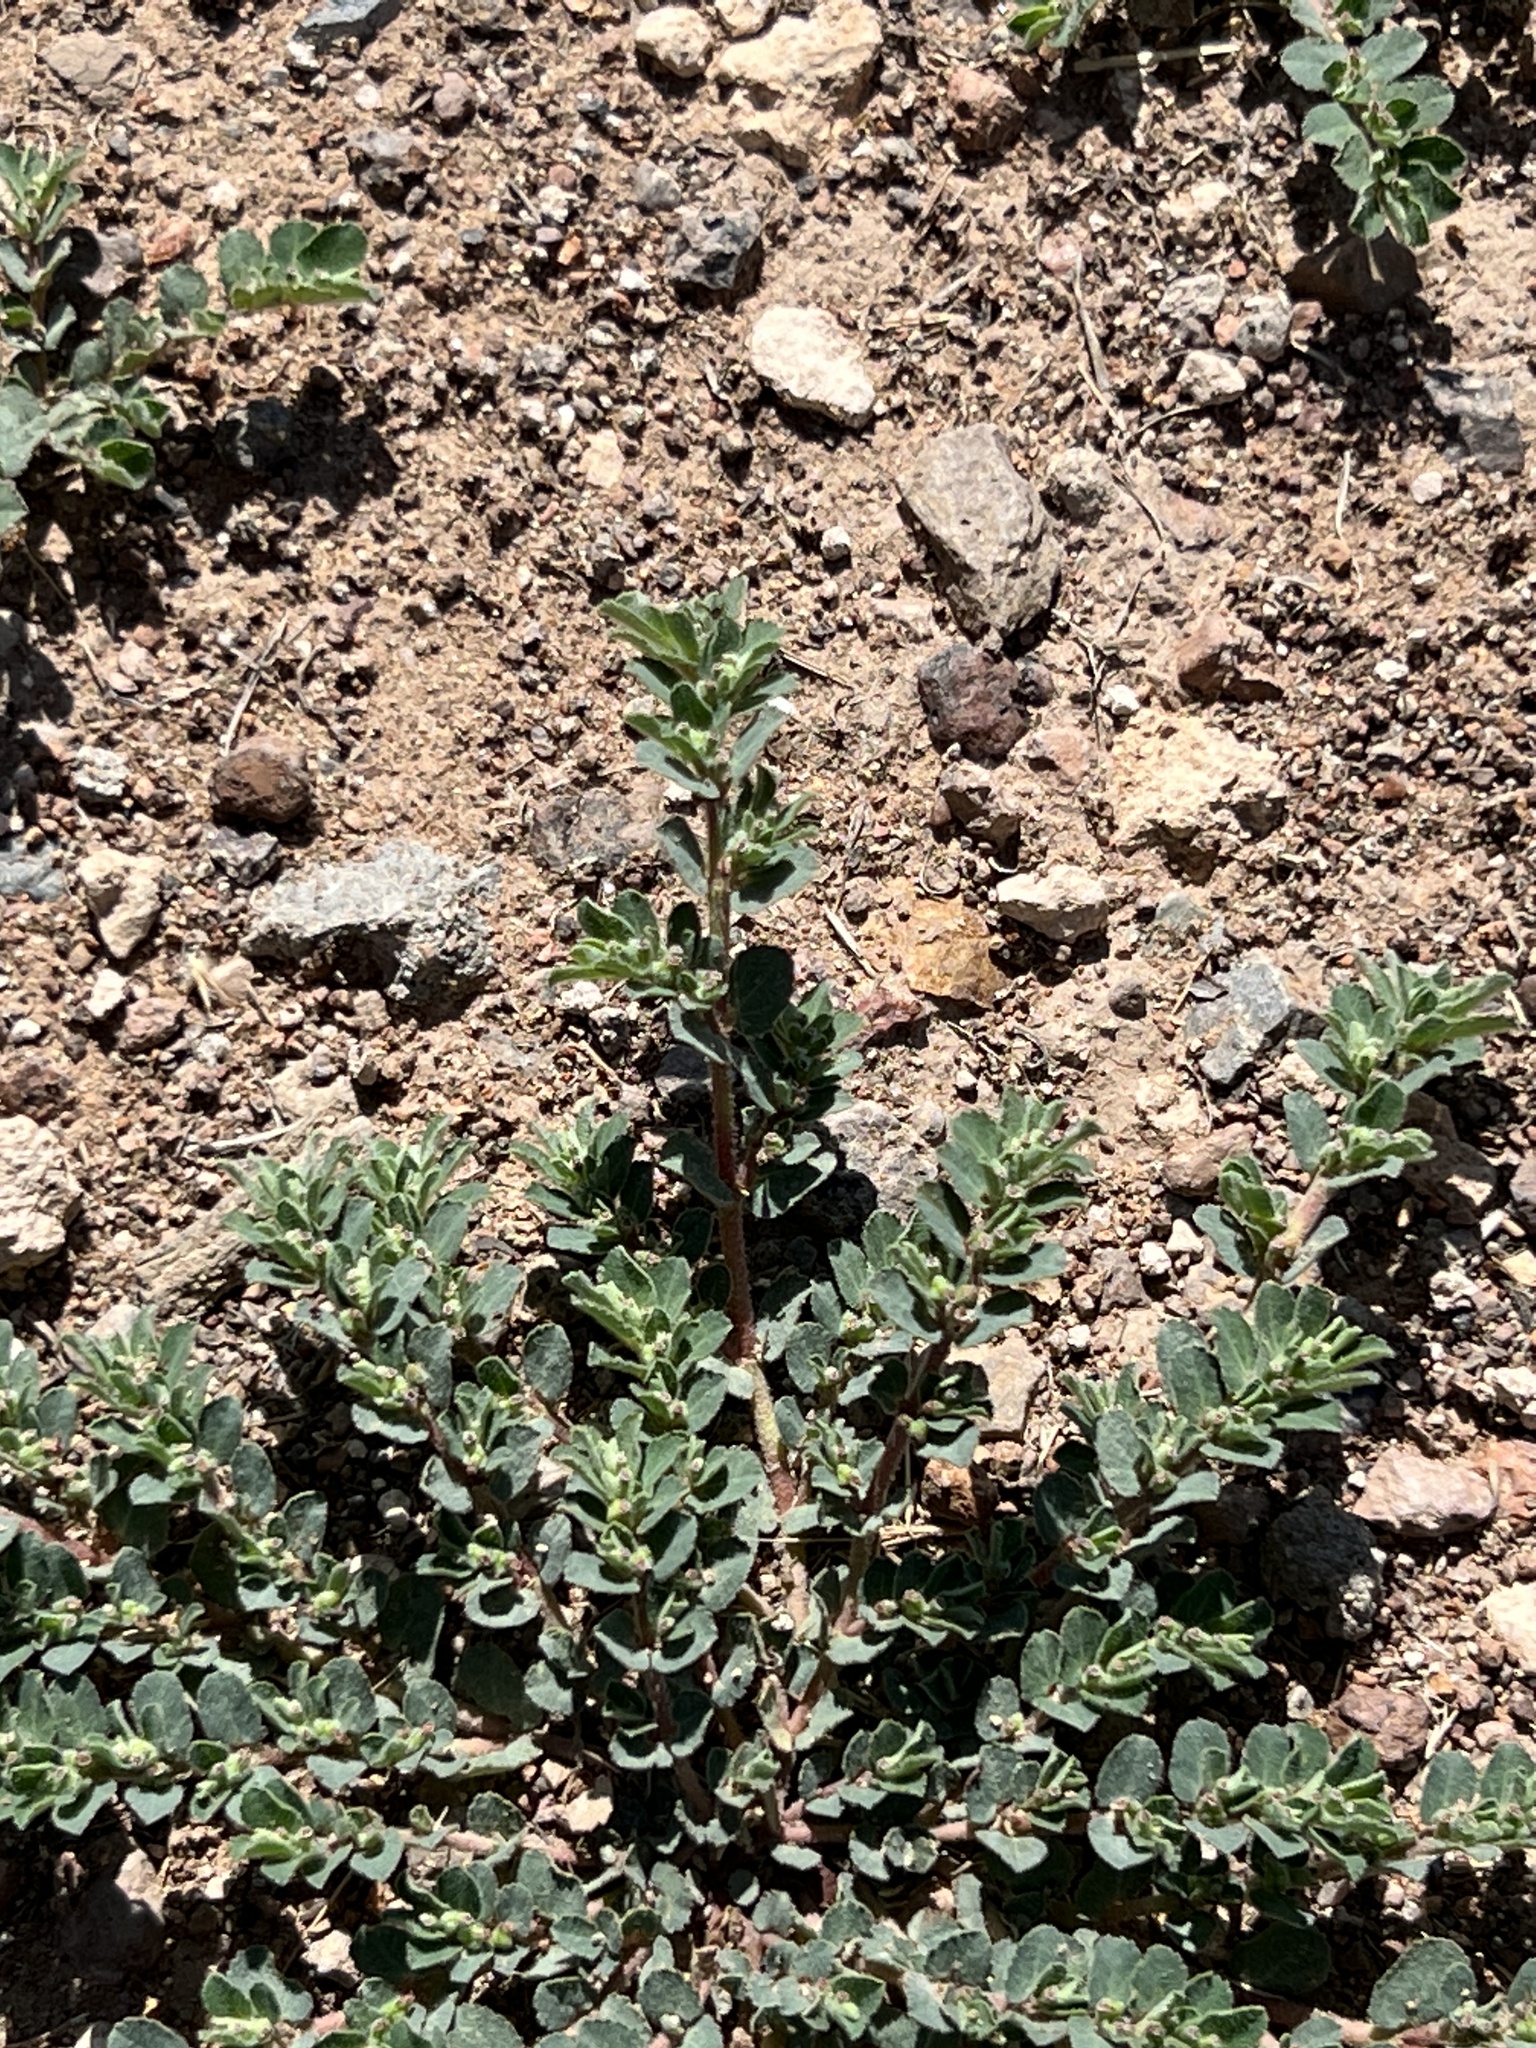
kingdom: Plantae
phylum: Tracheophyta
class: Magnoliopsida
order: Malpighiales
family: Euphorbiaceae
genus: Euphorbia
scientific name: Euphorbia stictospora
